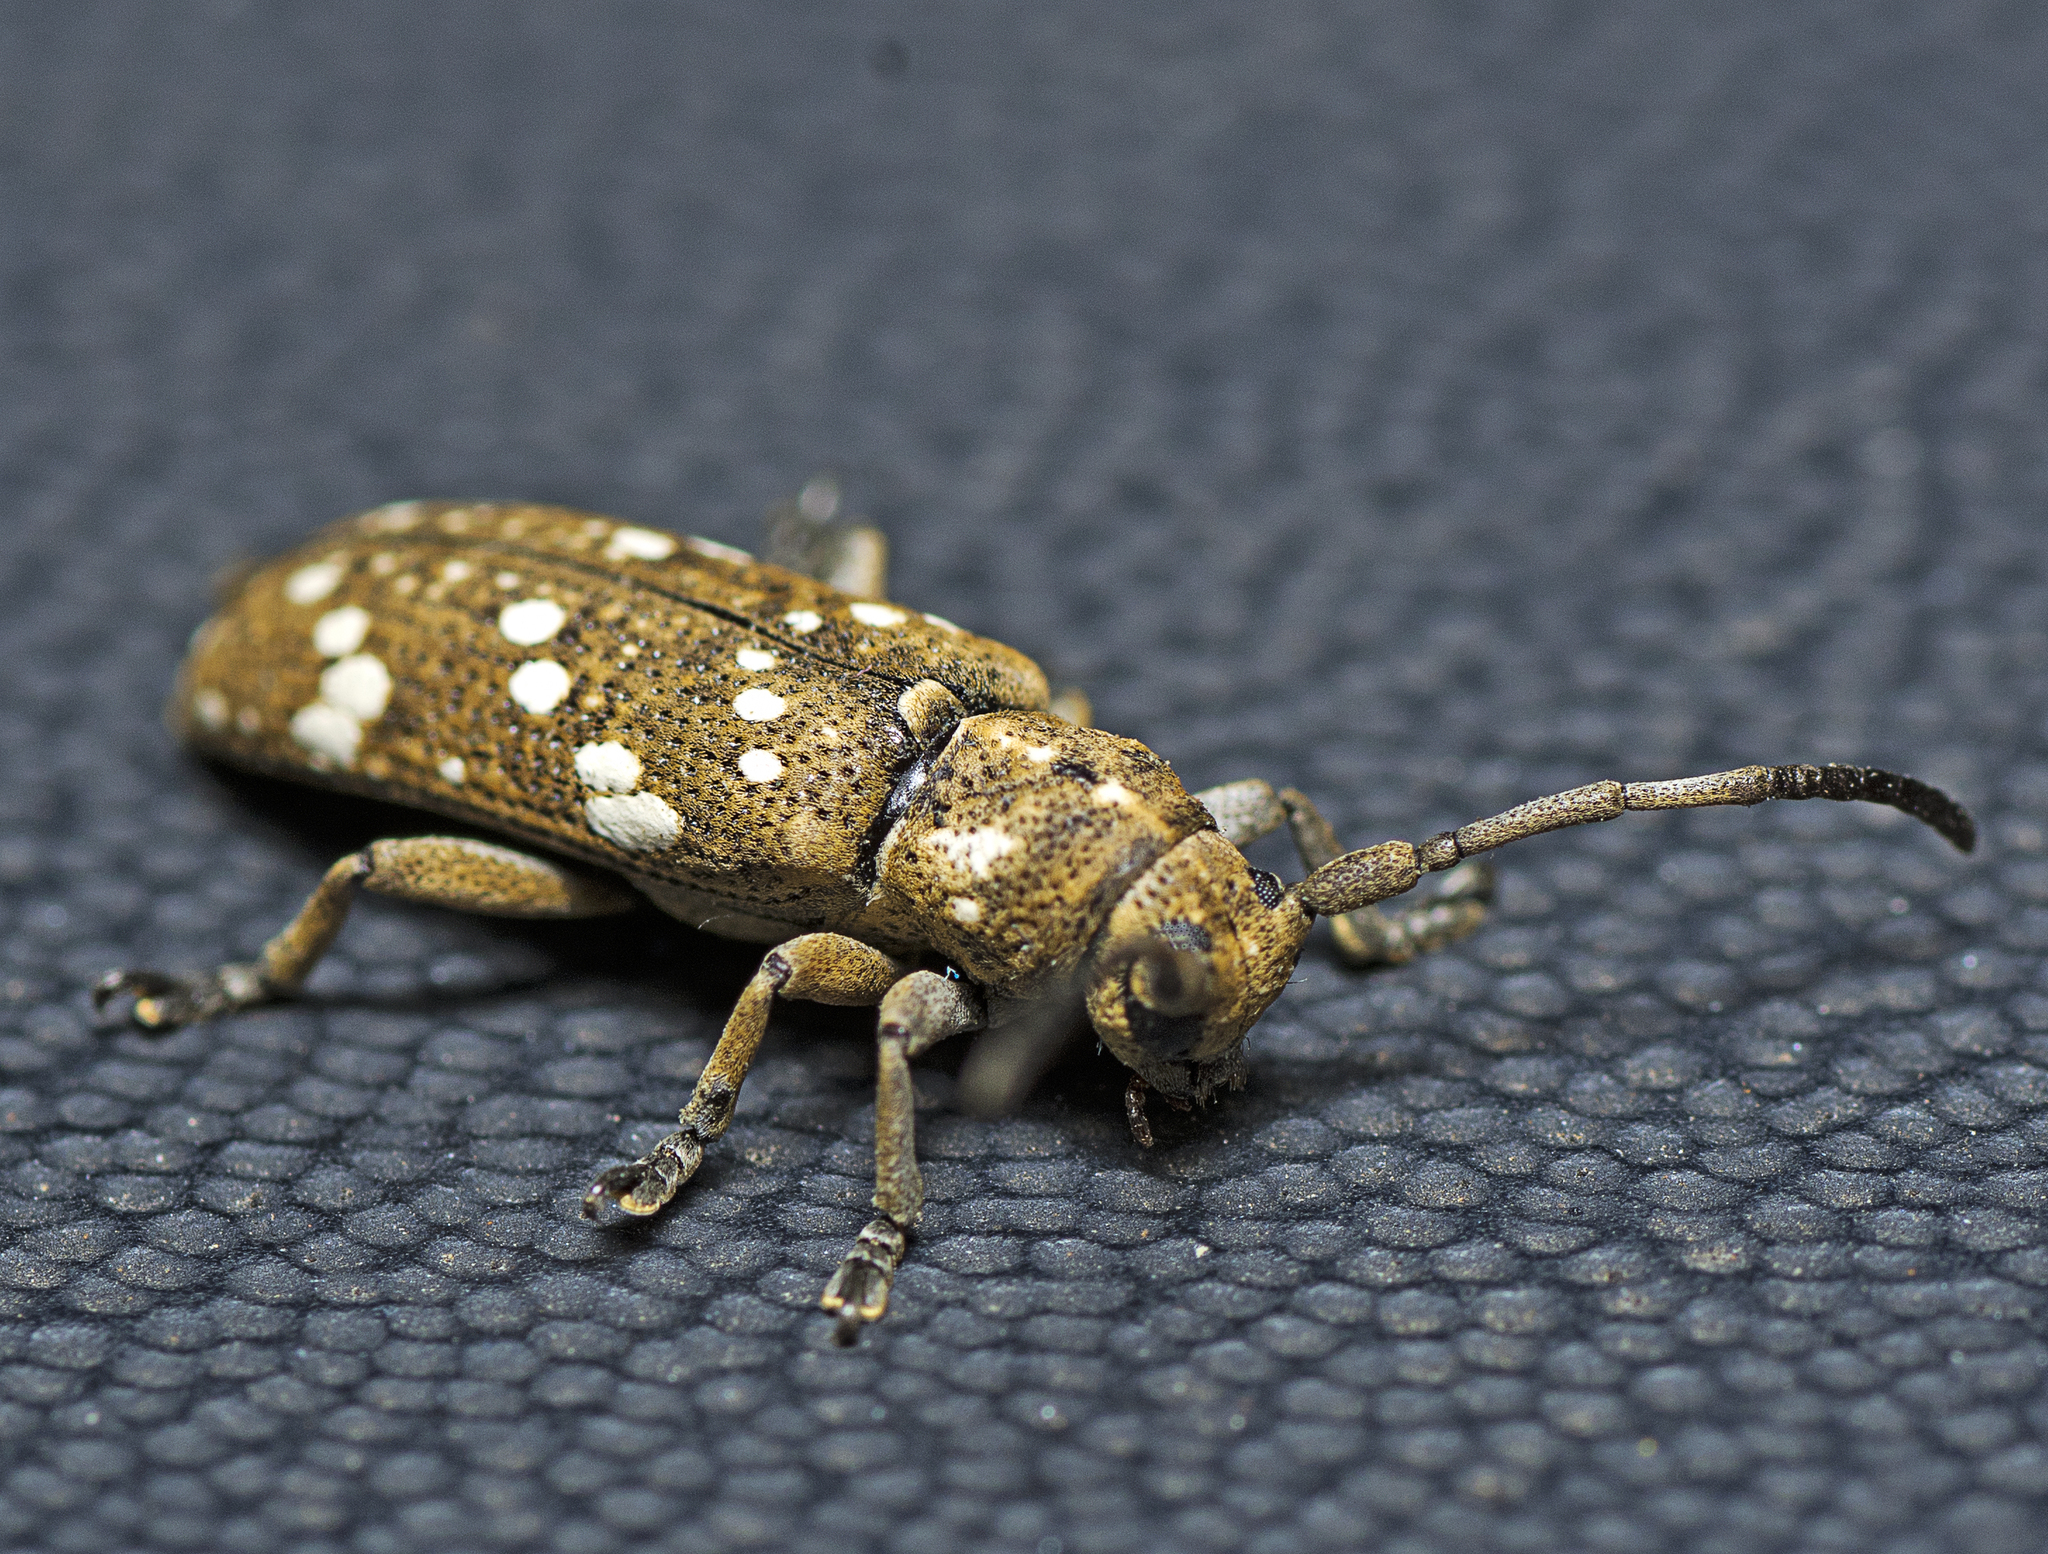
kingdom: Animalia
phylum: Arthropoda
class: Insecta
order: Coleoptera
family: Cerambycidae
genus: Apomecyna
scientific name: Apomecyna histrio
